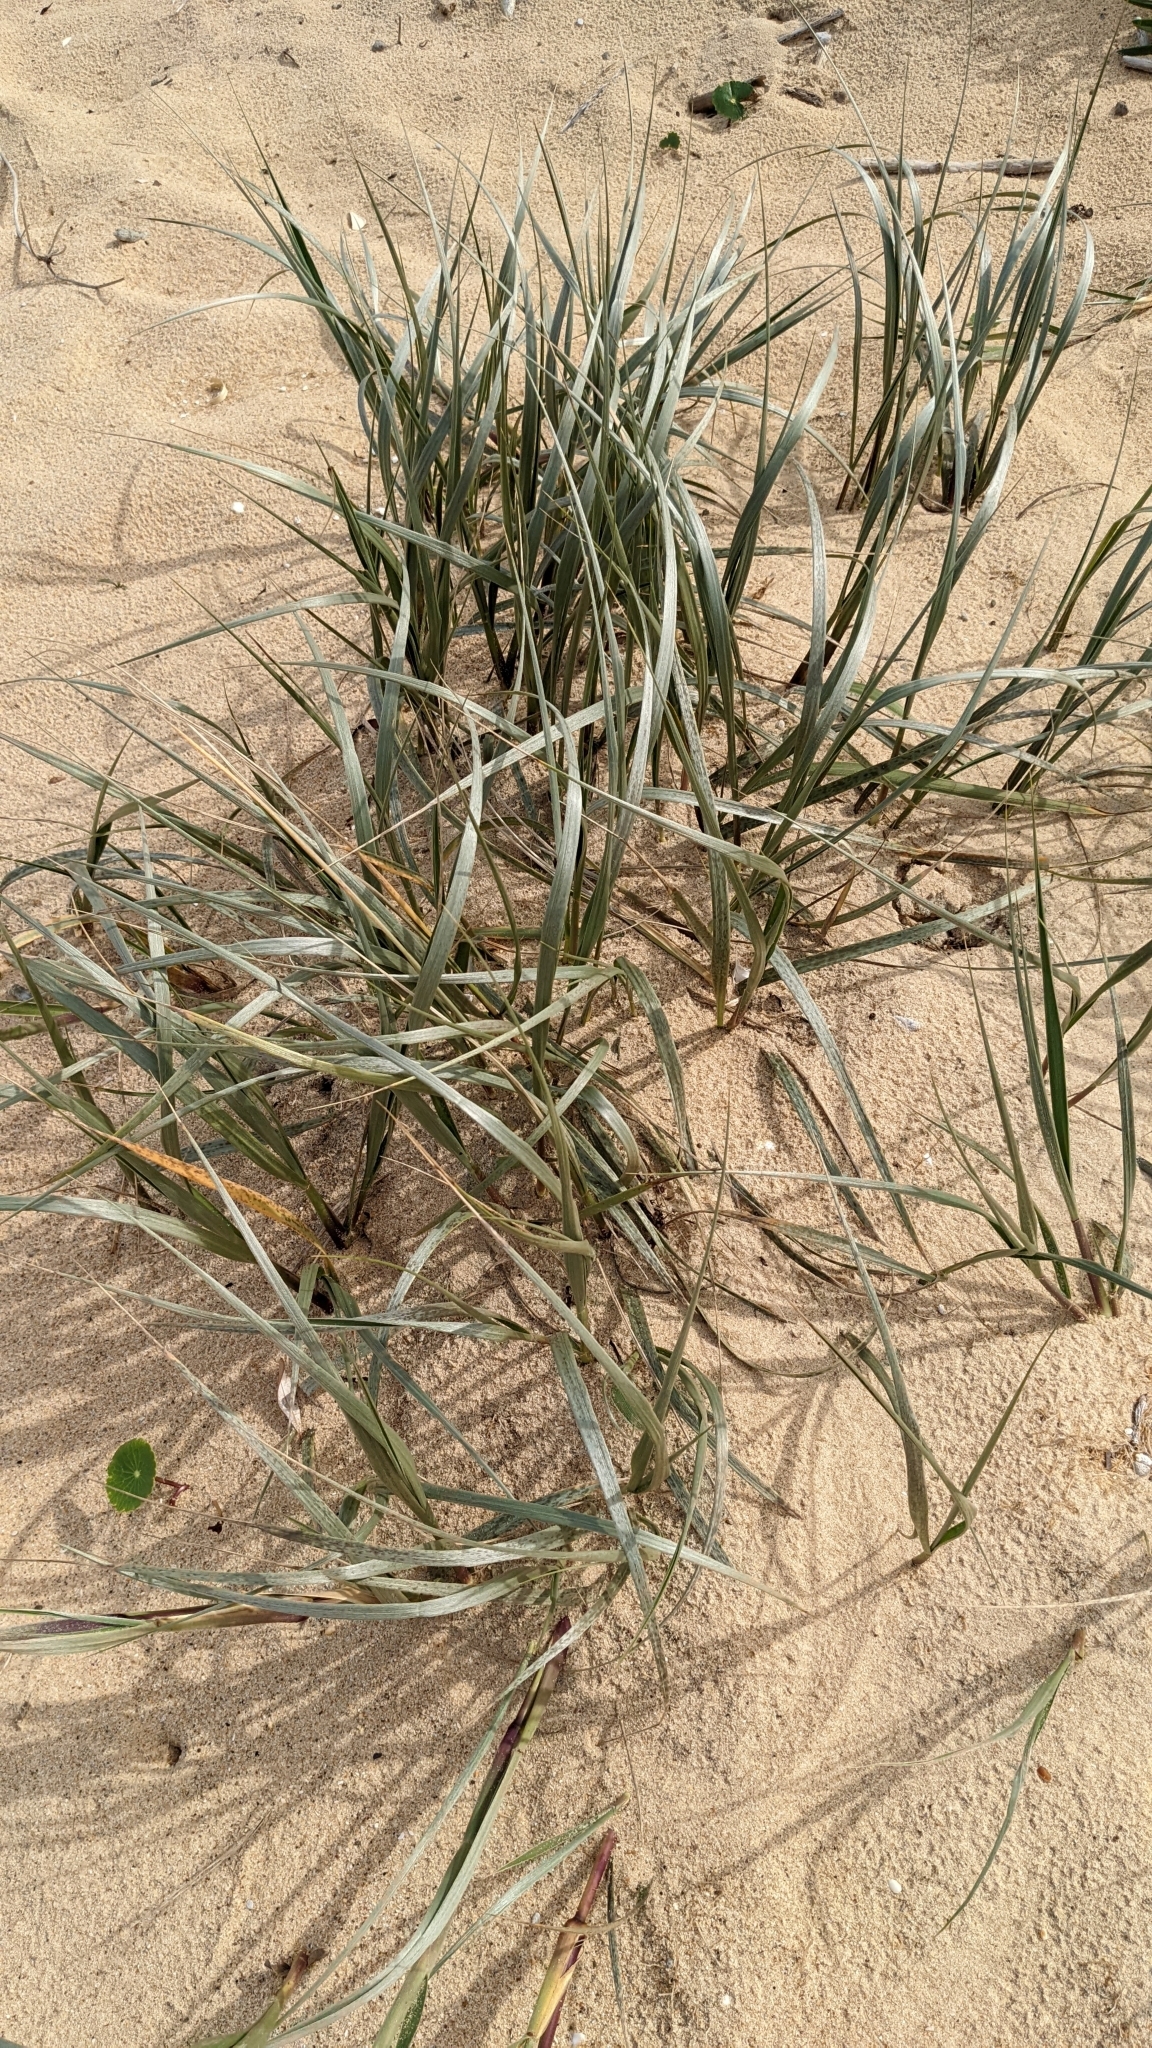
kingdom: Plantae
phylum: Tracheophyta
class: Liliopsida
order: Poales
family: Poaceae
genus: Spinifex
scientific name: Spinifex sericeus
